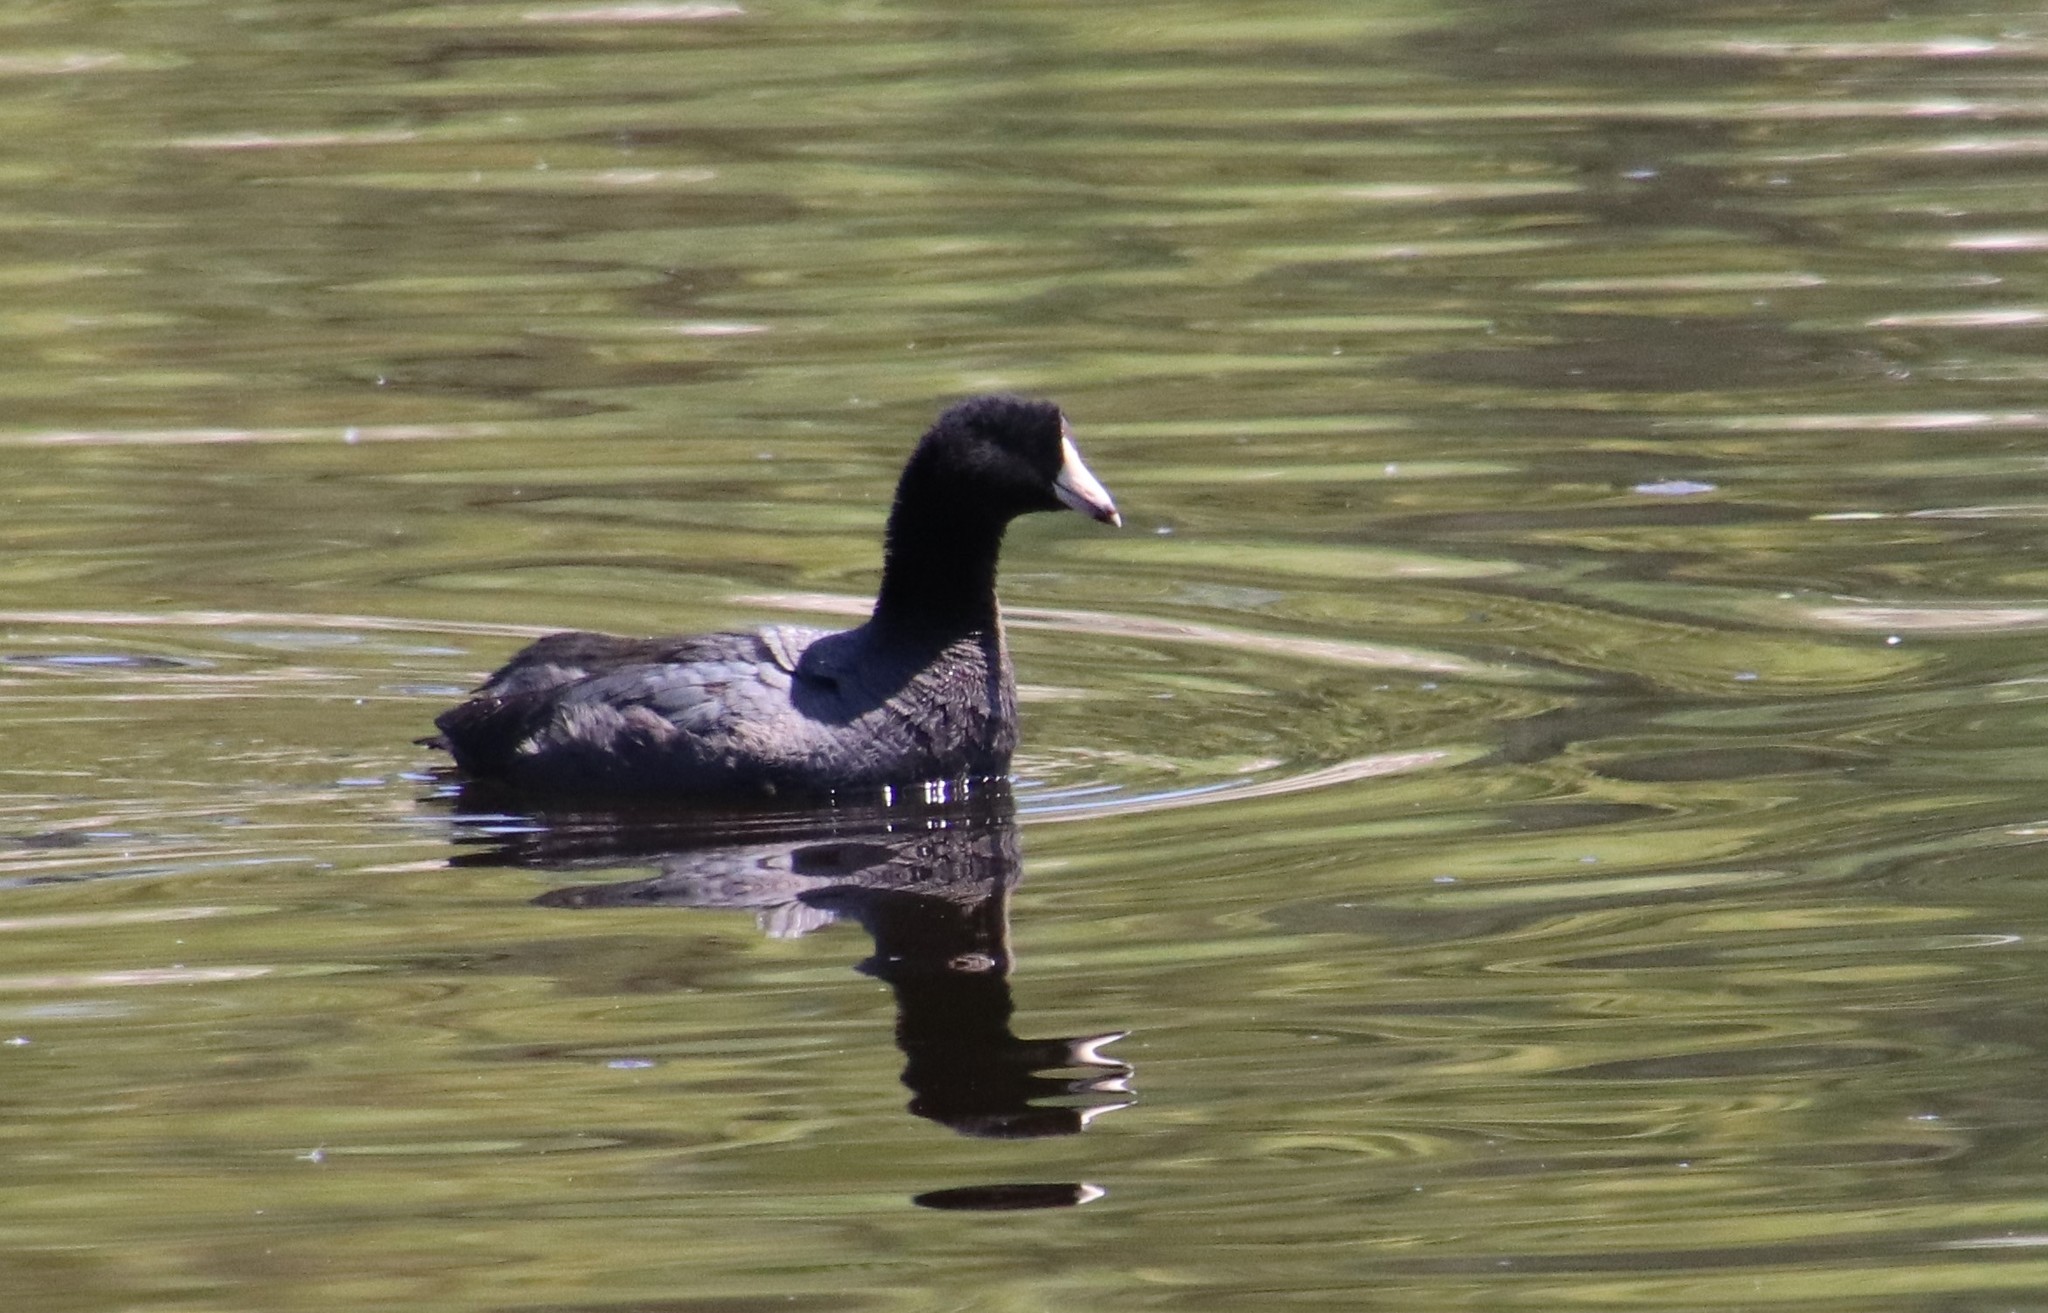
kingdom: Animalia
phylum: Chordata
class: Aves
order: Gruiformes
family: Rallidae
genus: Fulica
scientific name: Fulica americana
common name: American coot
